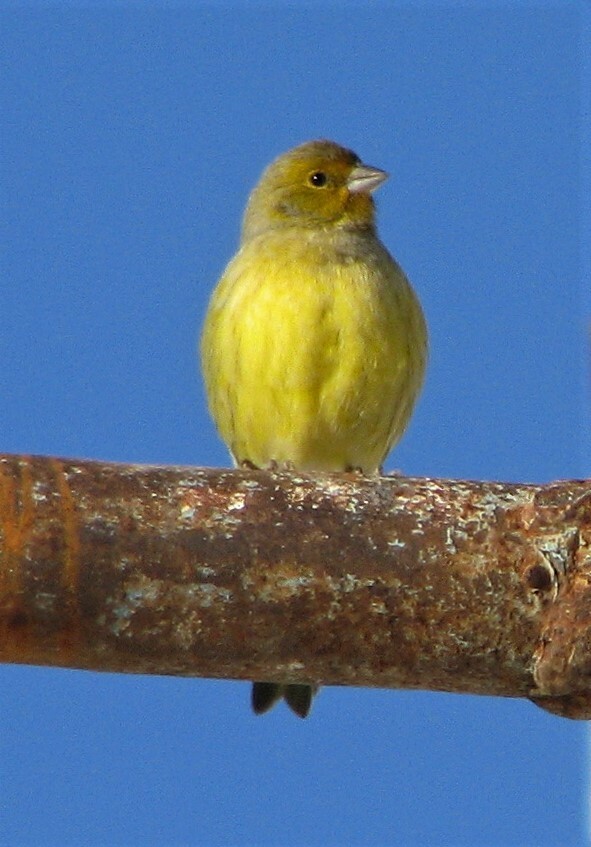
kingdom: Animalia
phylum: Chordata
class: Aves
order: Passeriformes
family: Thraupidae
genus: Sicalis
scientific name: Sicalis flaveola
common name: Saffron finch
